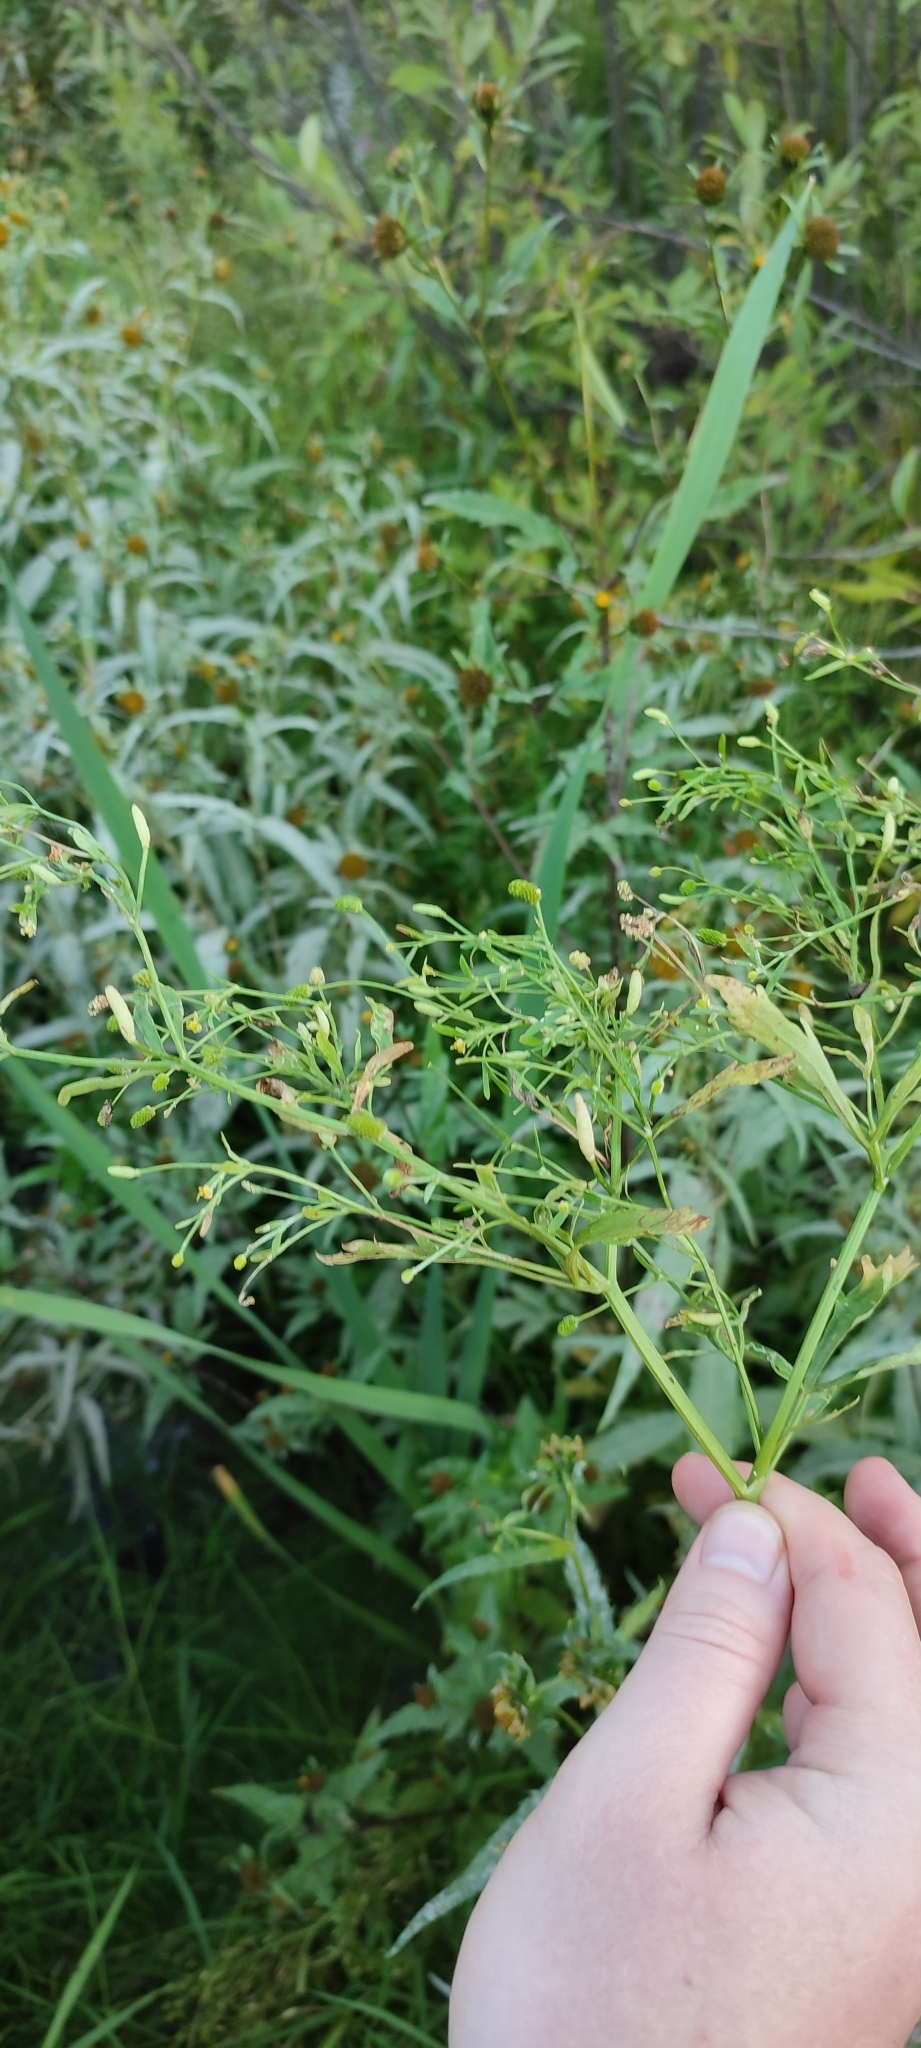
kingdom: Plantae
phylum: Tracheophyta
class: Magnoliopsida
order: Ranunculales
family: Ranunculaceae
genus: Ranunculus
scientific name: Ranunculus sceleratus
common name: Celery-leaved buttercup
